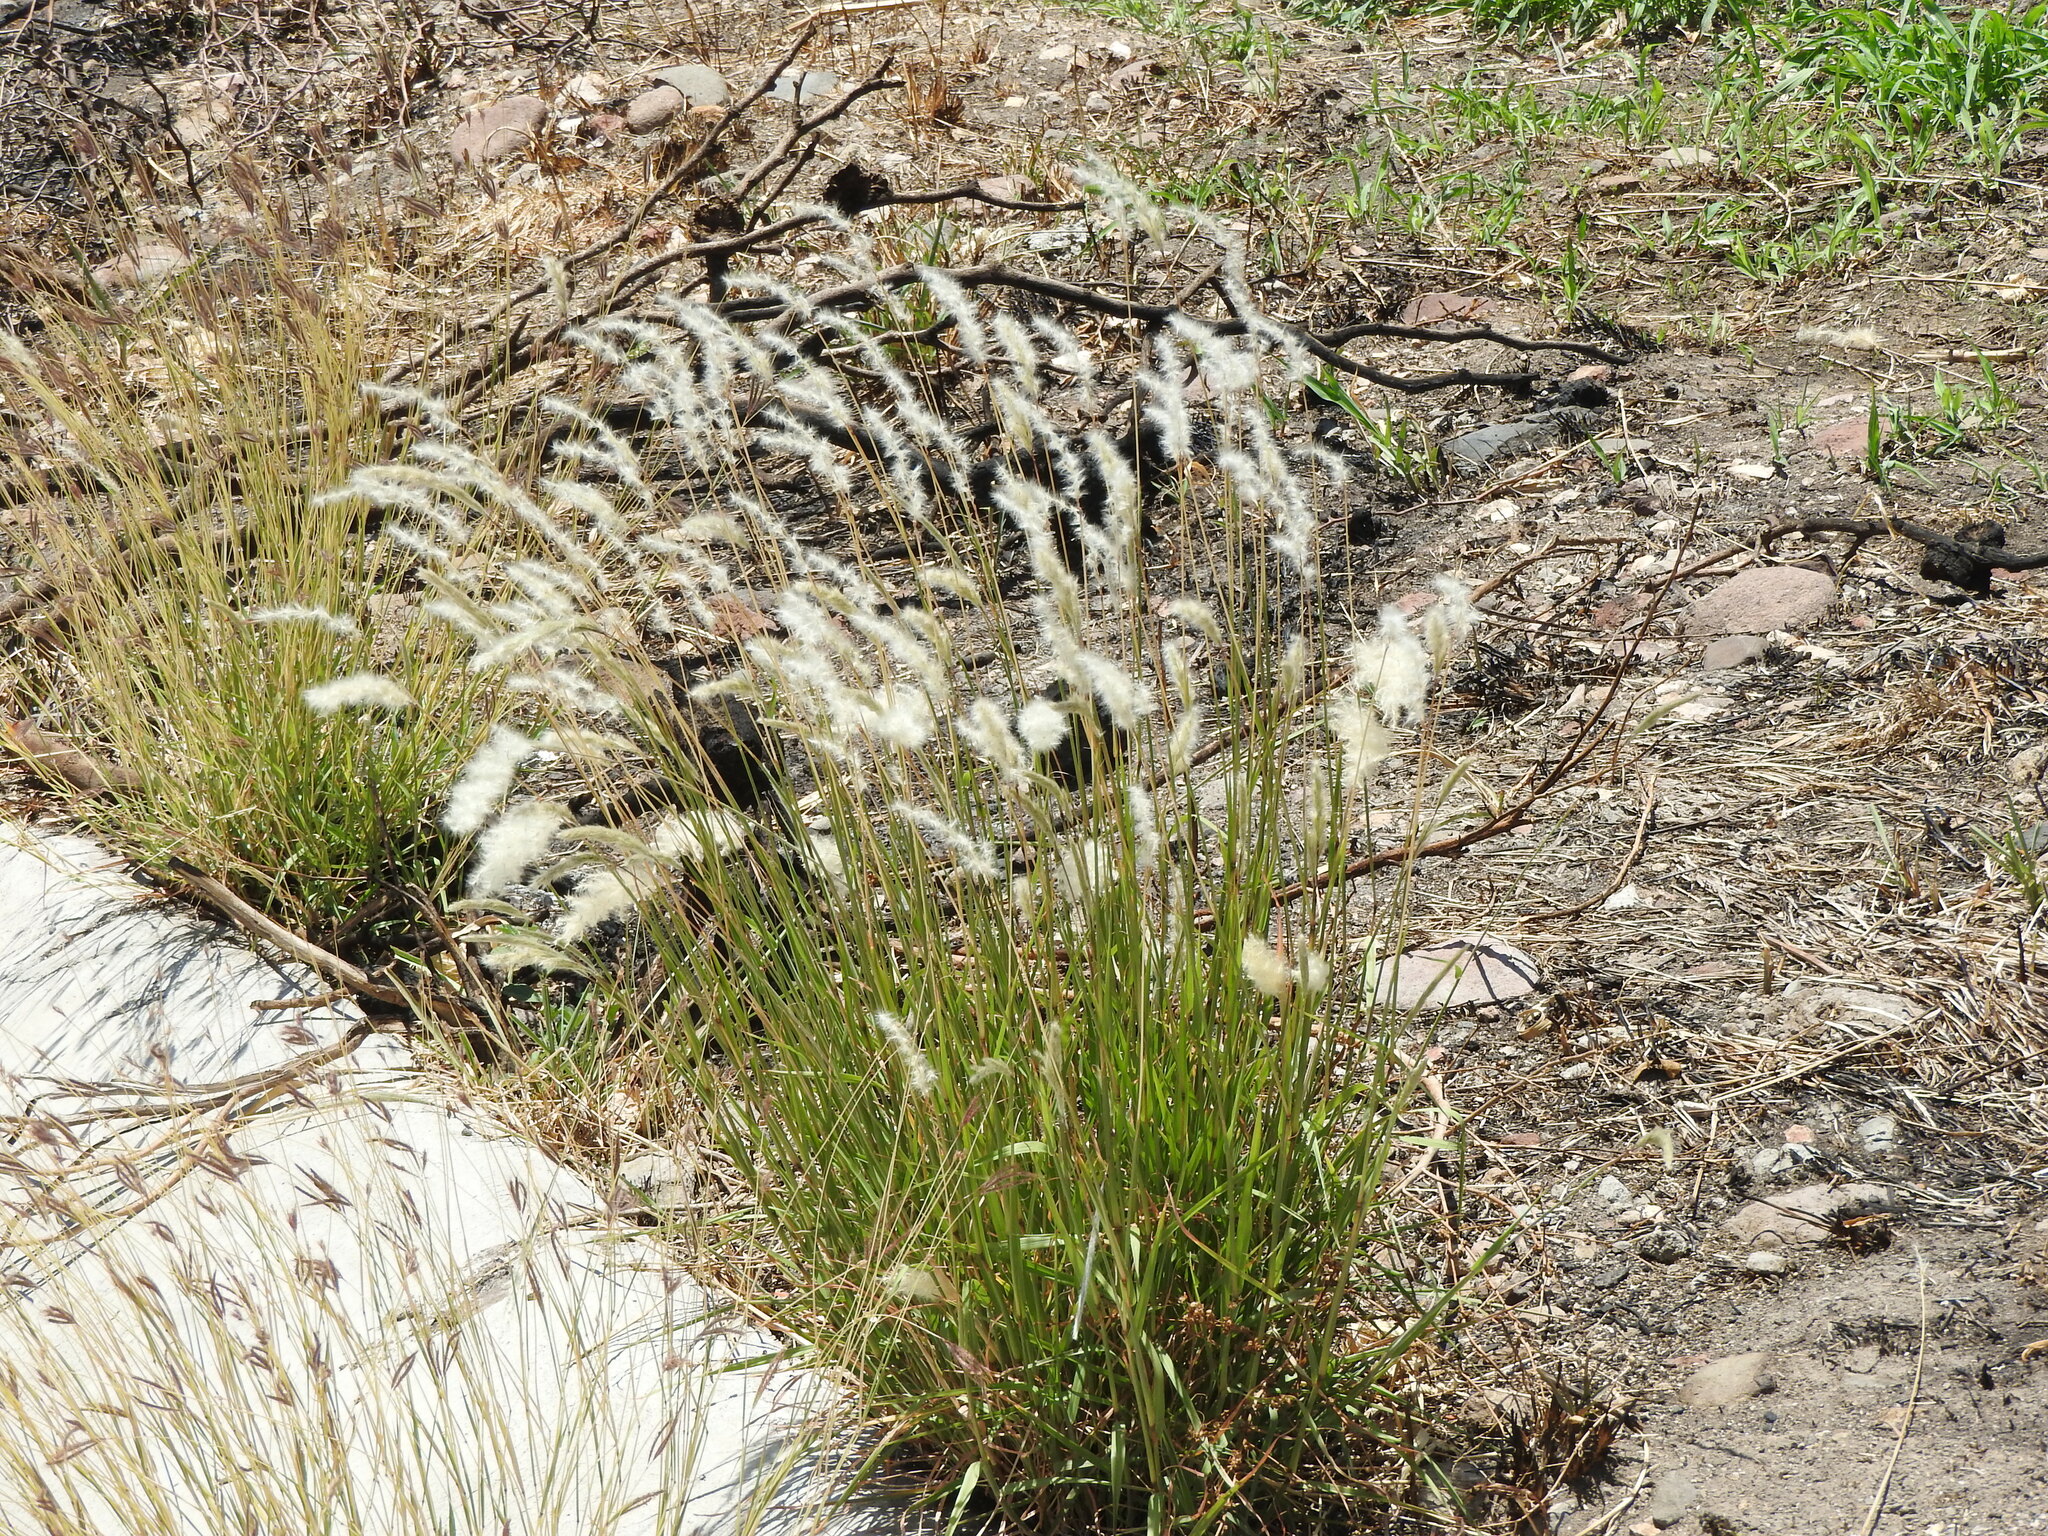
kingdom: Plantae
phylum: Tracheophyta
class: Liliopsida
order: Poales
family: Poaceae
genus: Polypogon
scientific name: Polypogon monspeliensis
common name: Annual rabbitsfoot grass
